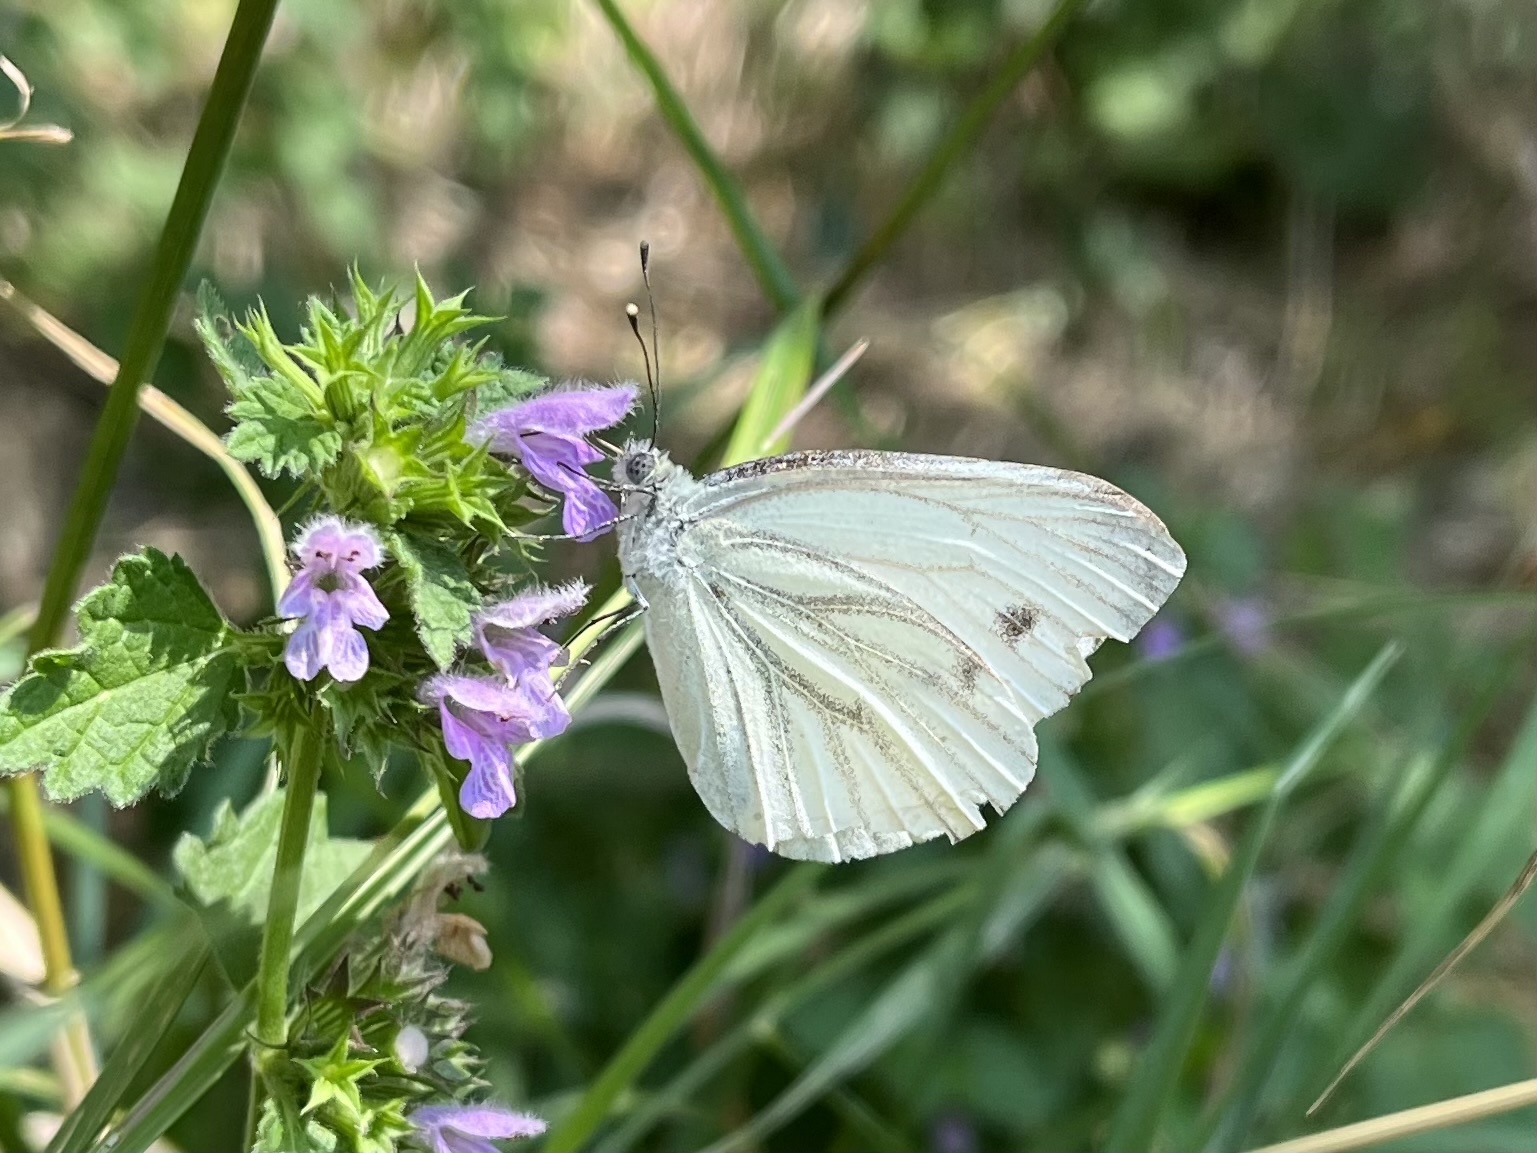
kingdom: Animalia
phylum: Arthropoda
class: Insecta
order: Lepidoptera
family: Pieridae
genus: Pieris
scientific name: Pieris napi
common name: Green-veined white
